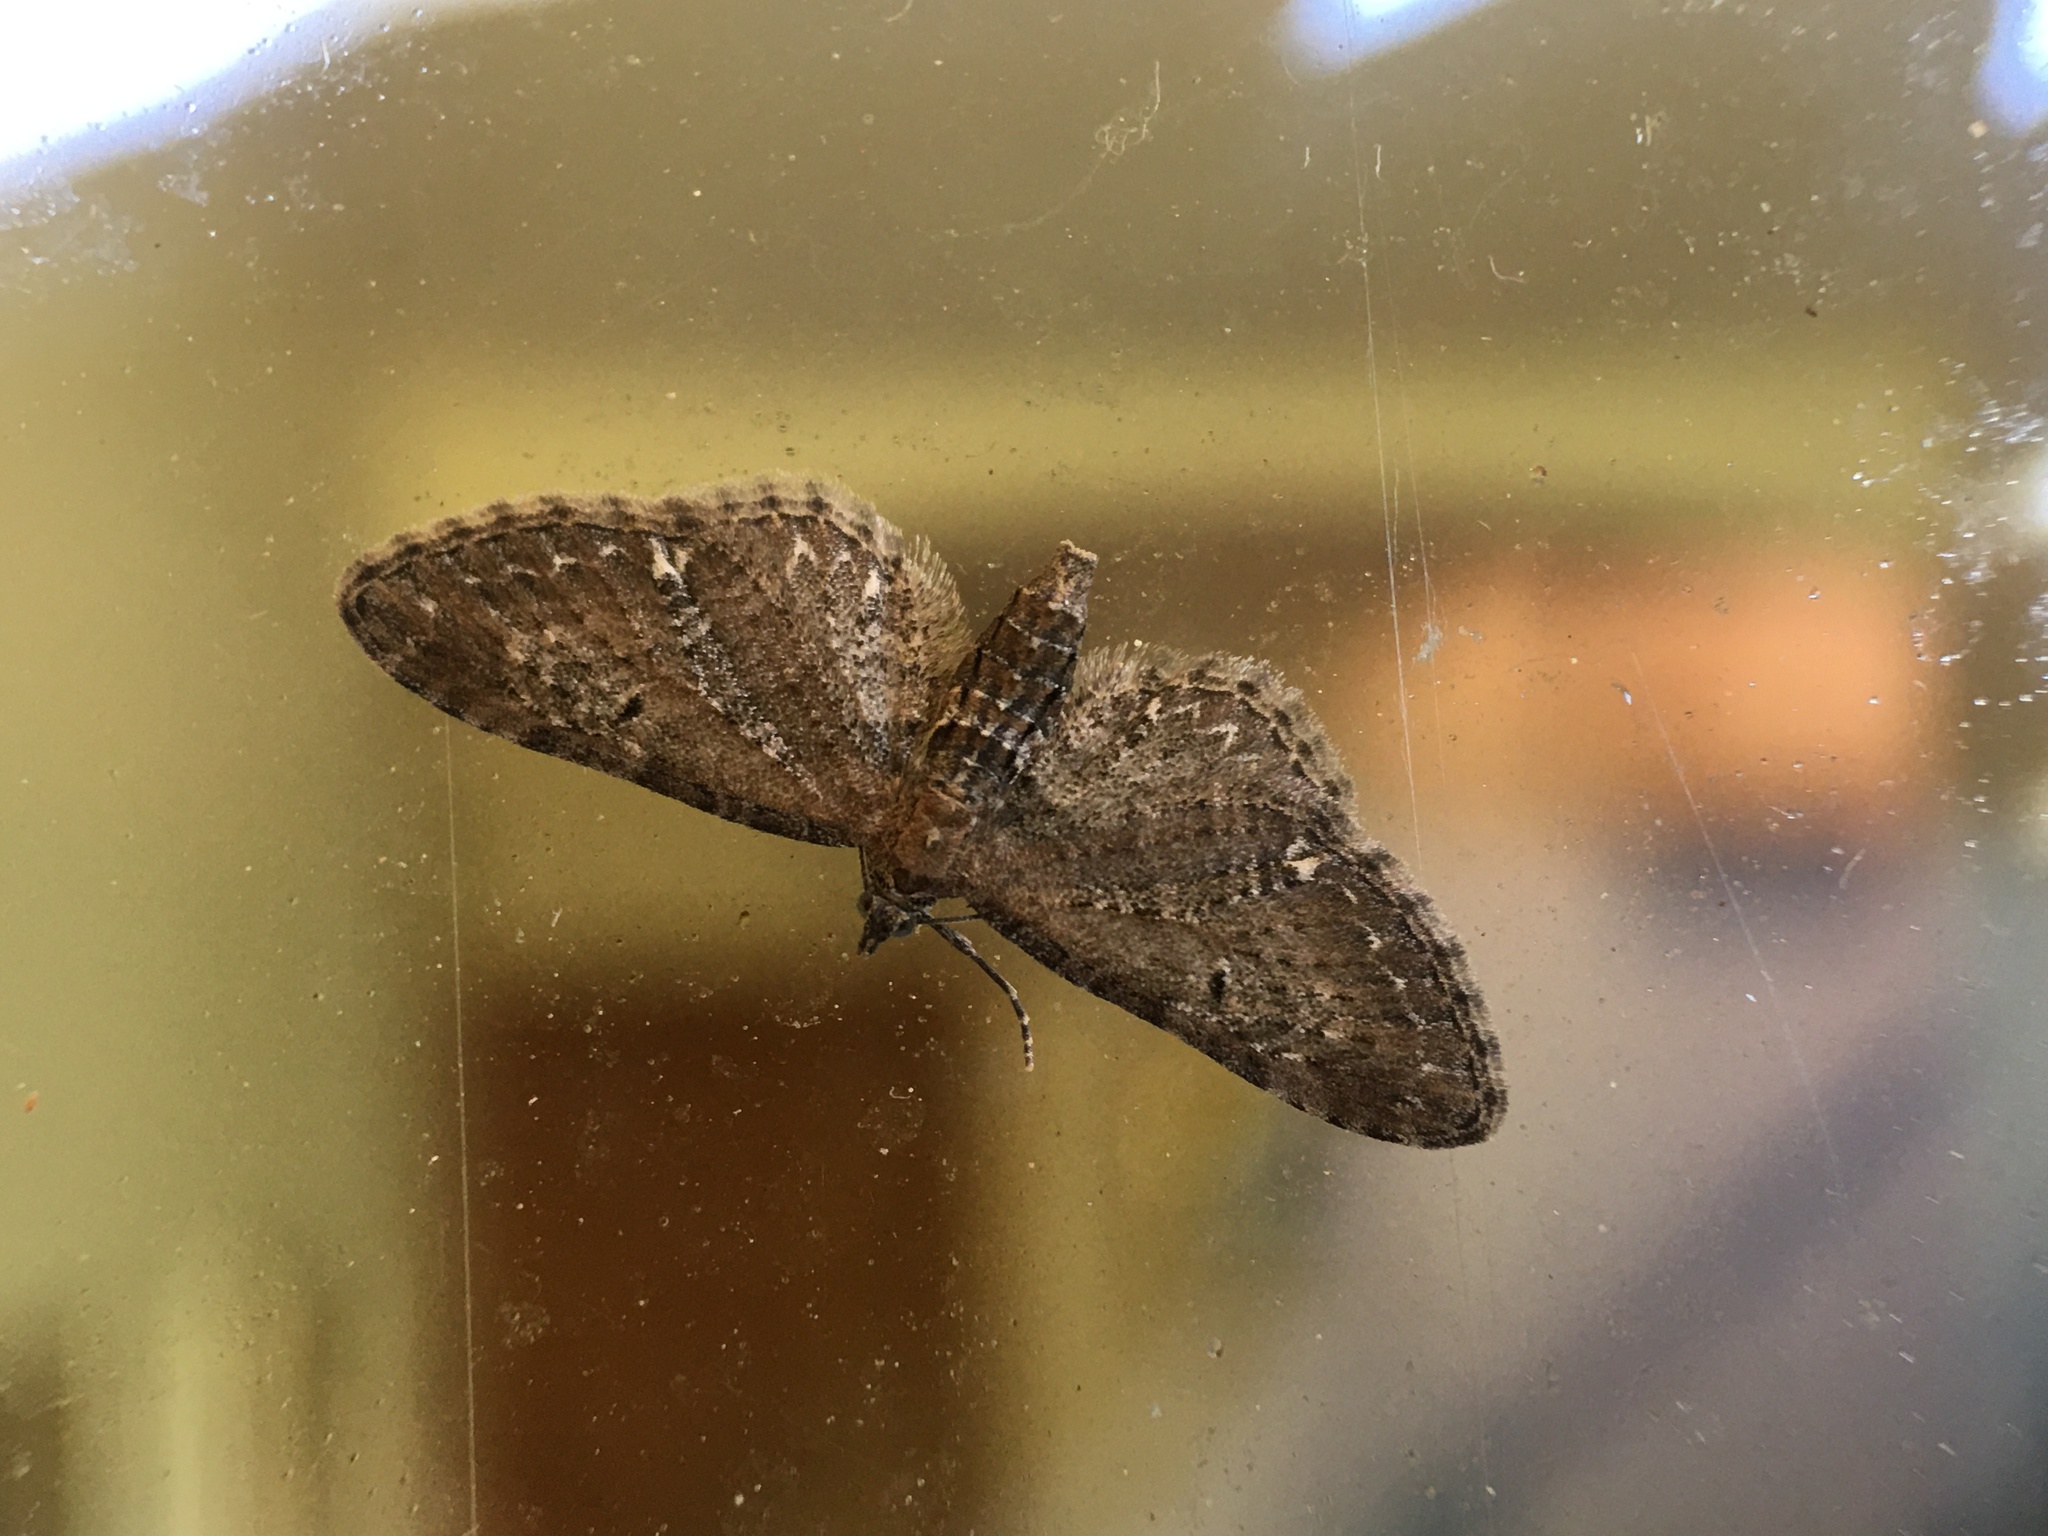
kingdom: Animalia
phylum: Arthropoda
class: Insecta
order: Lepidoptera
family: Geometridae
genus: Eupithecia
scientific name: Eupithecia vulgata
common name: Common pug
